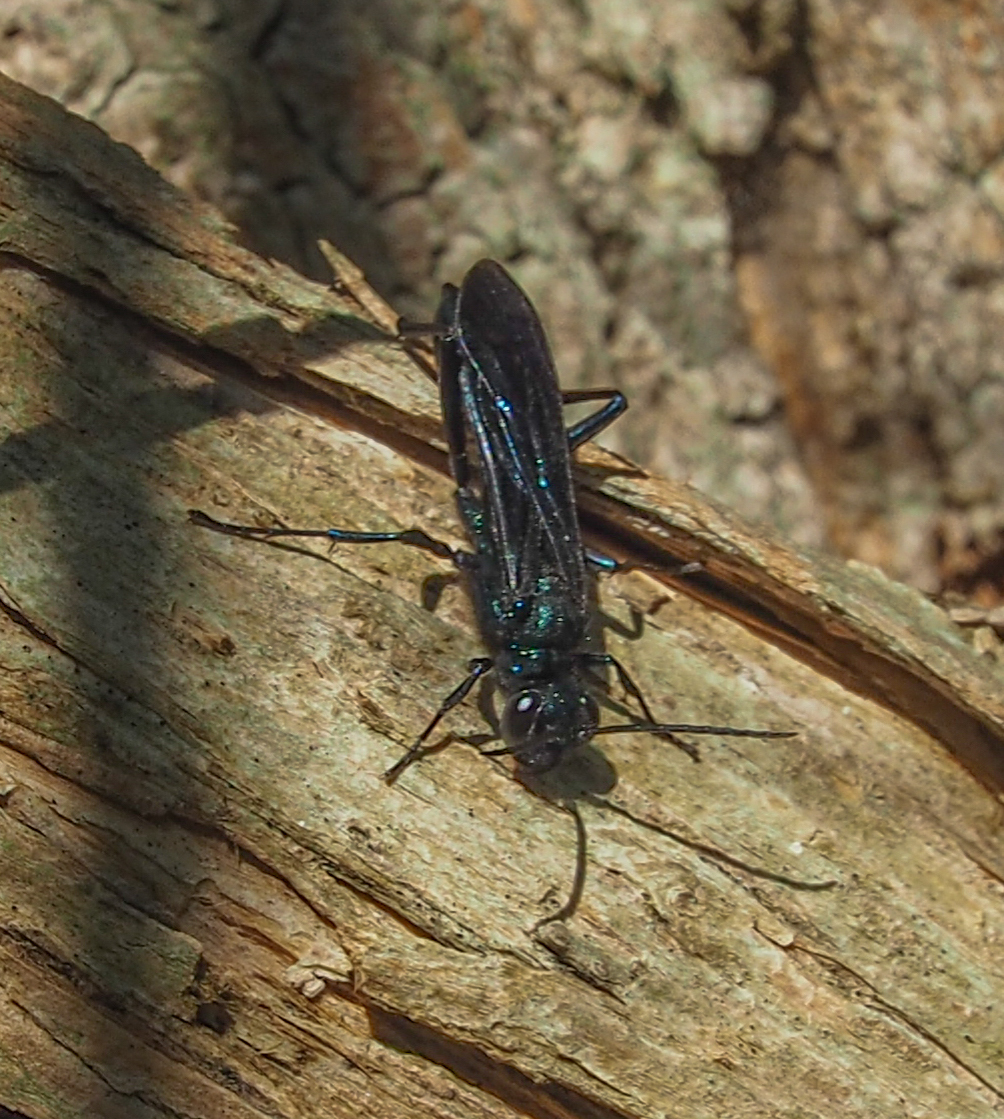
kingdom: Animalia
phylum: Arthropoda
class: Insecta
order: Hymenoptera
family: Sphecidae
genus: Chalybion
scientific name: Chalybion californicum
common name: Mud dauber
